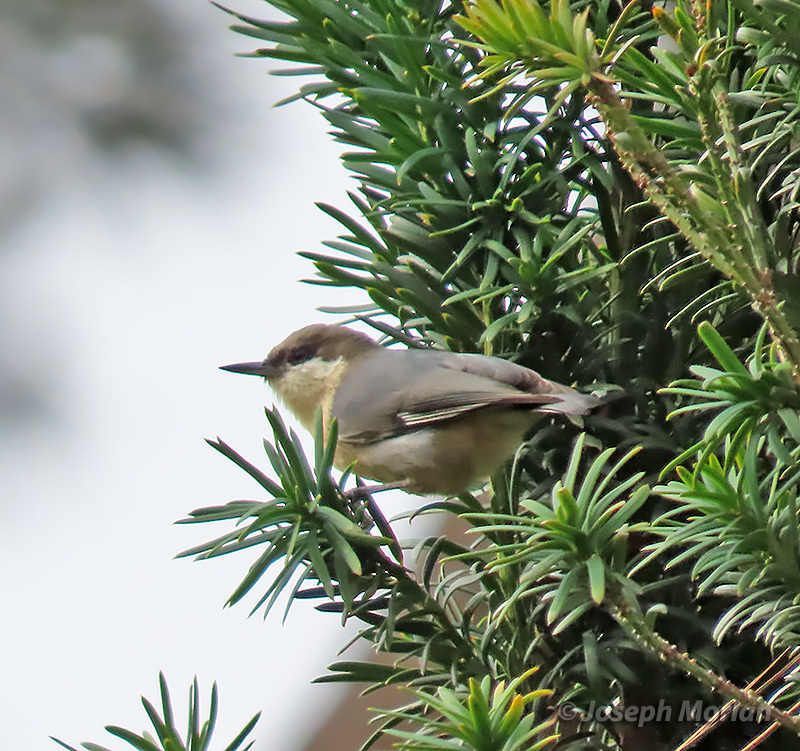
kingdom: Animalia
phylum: Chordata
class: Aves
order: Passeriformes
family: Sittidae
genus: Sitta
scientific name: Sitta pygmaea
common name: Pygmy nuthatch
